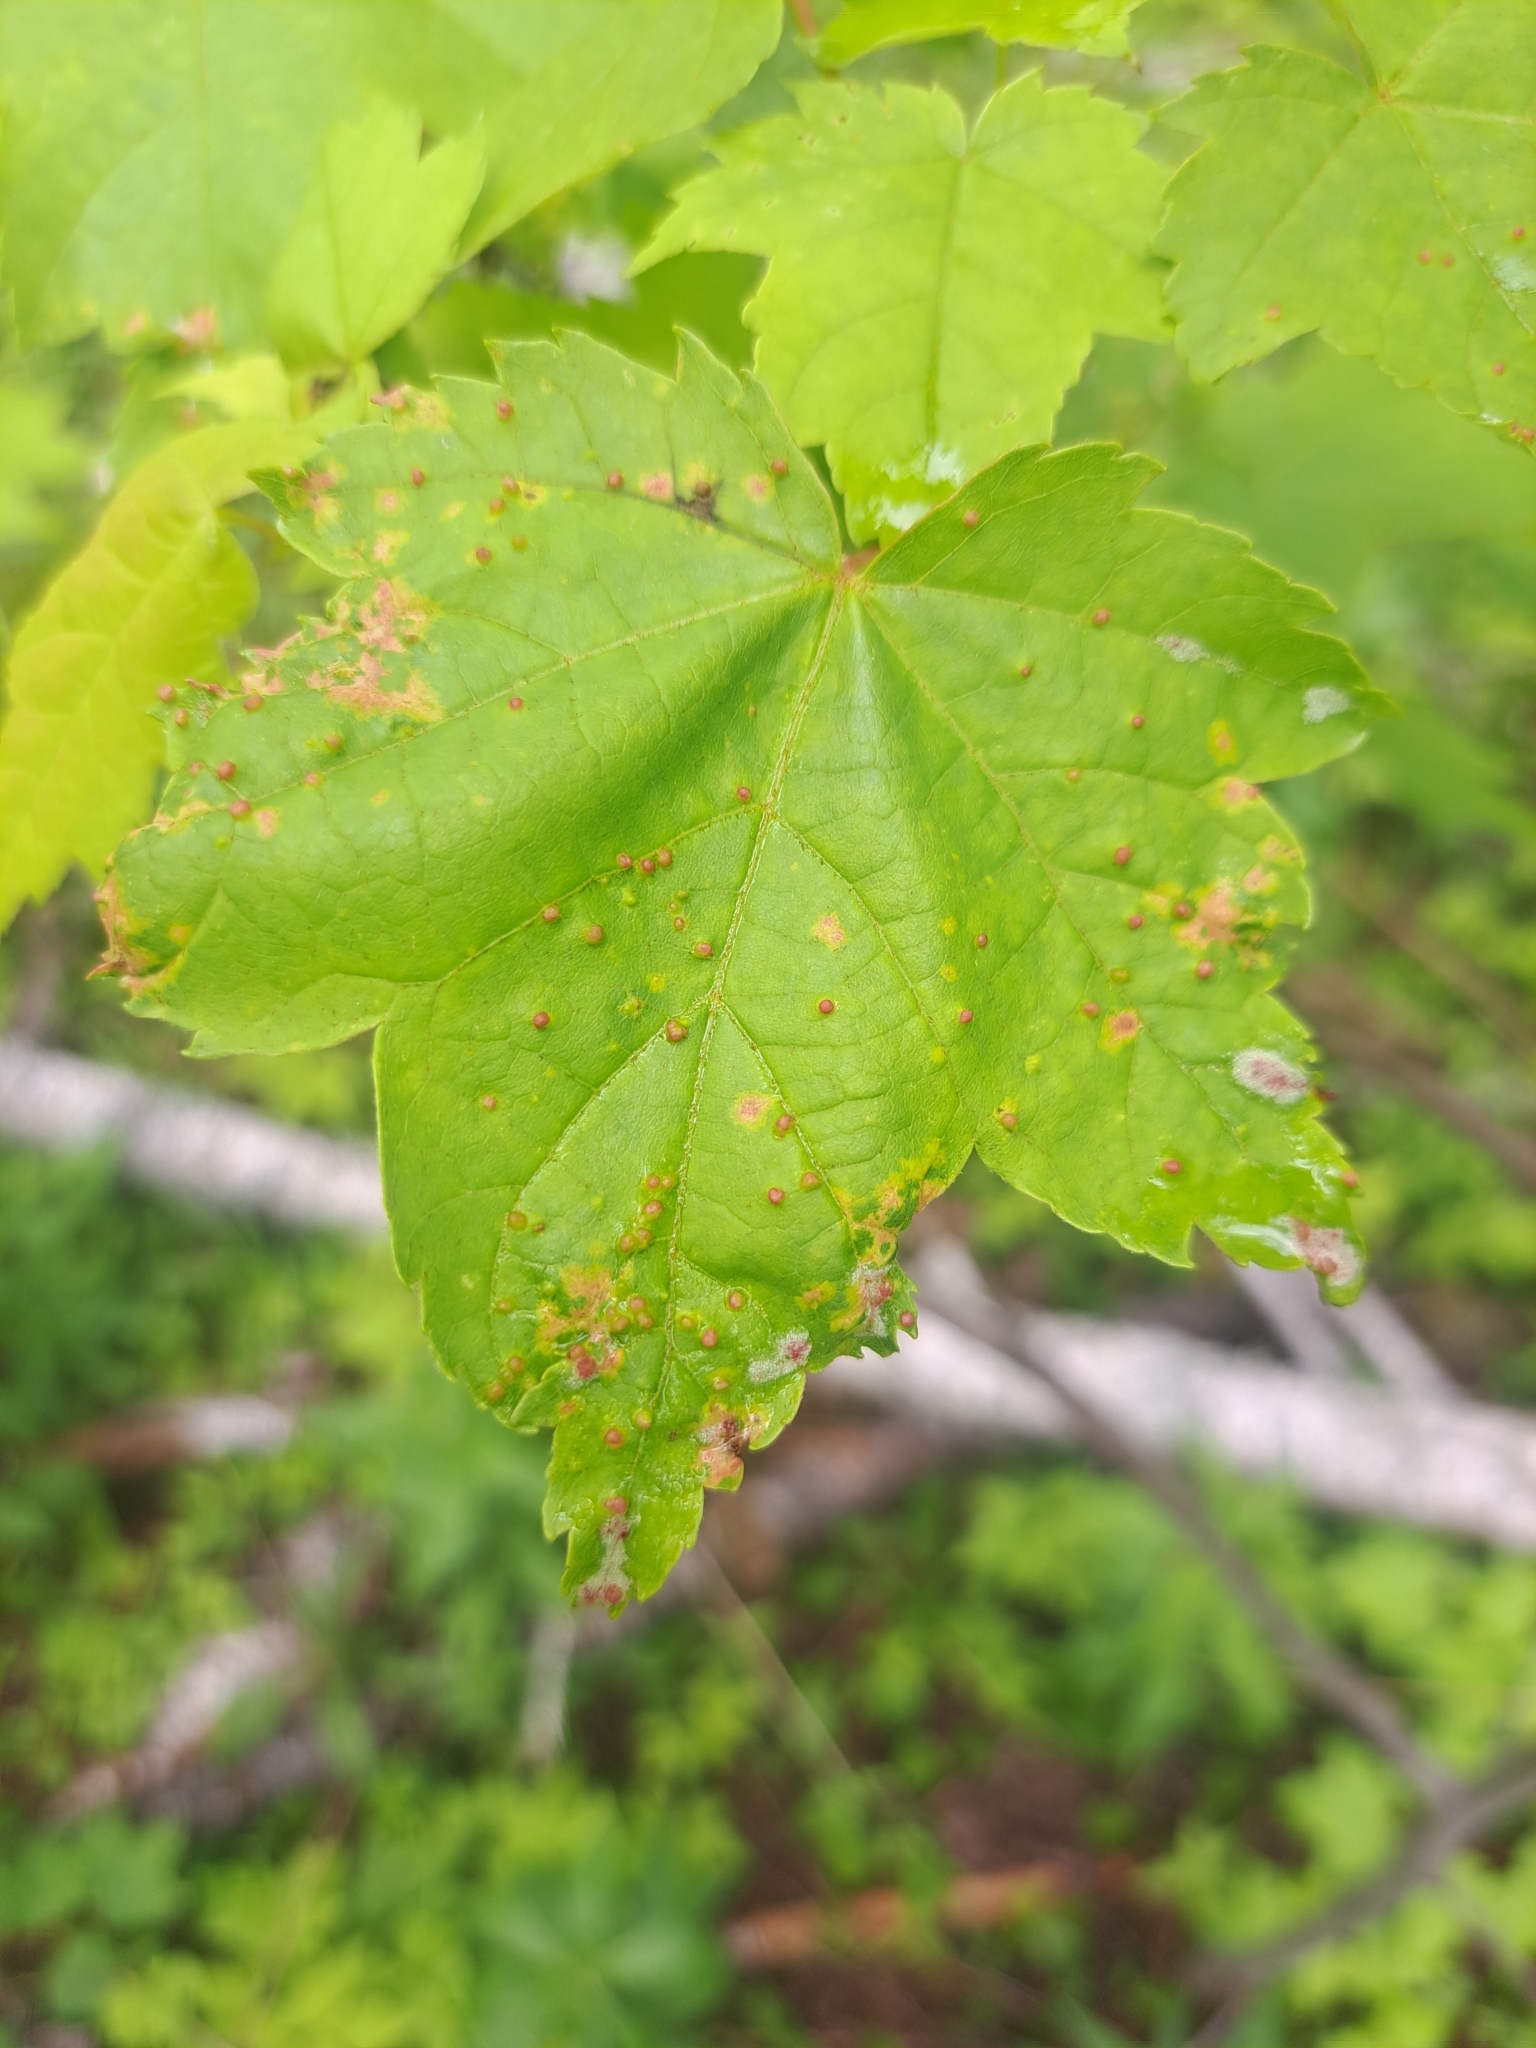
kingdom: Animalia
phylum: Arthropoda
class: Arachnida
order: Trombidiformes
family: Eriophyidae
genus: Vasates
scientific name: Vasates quadripedes
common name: Maple bladder gall mite
